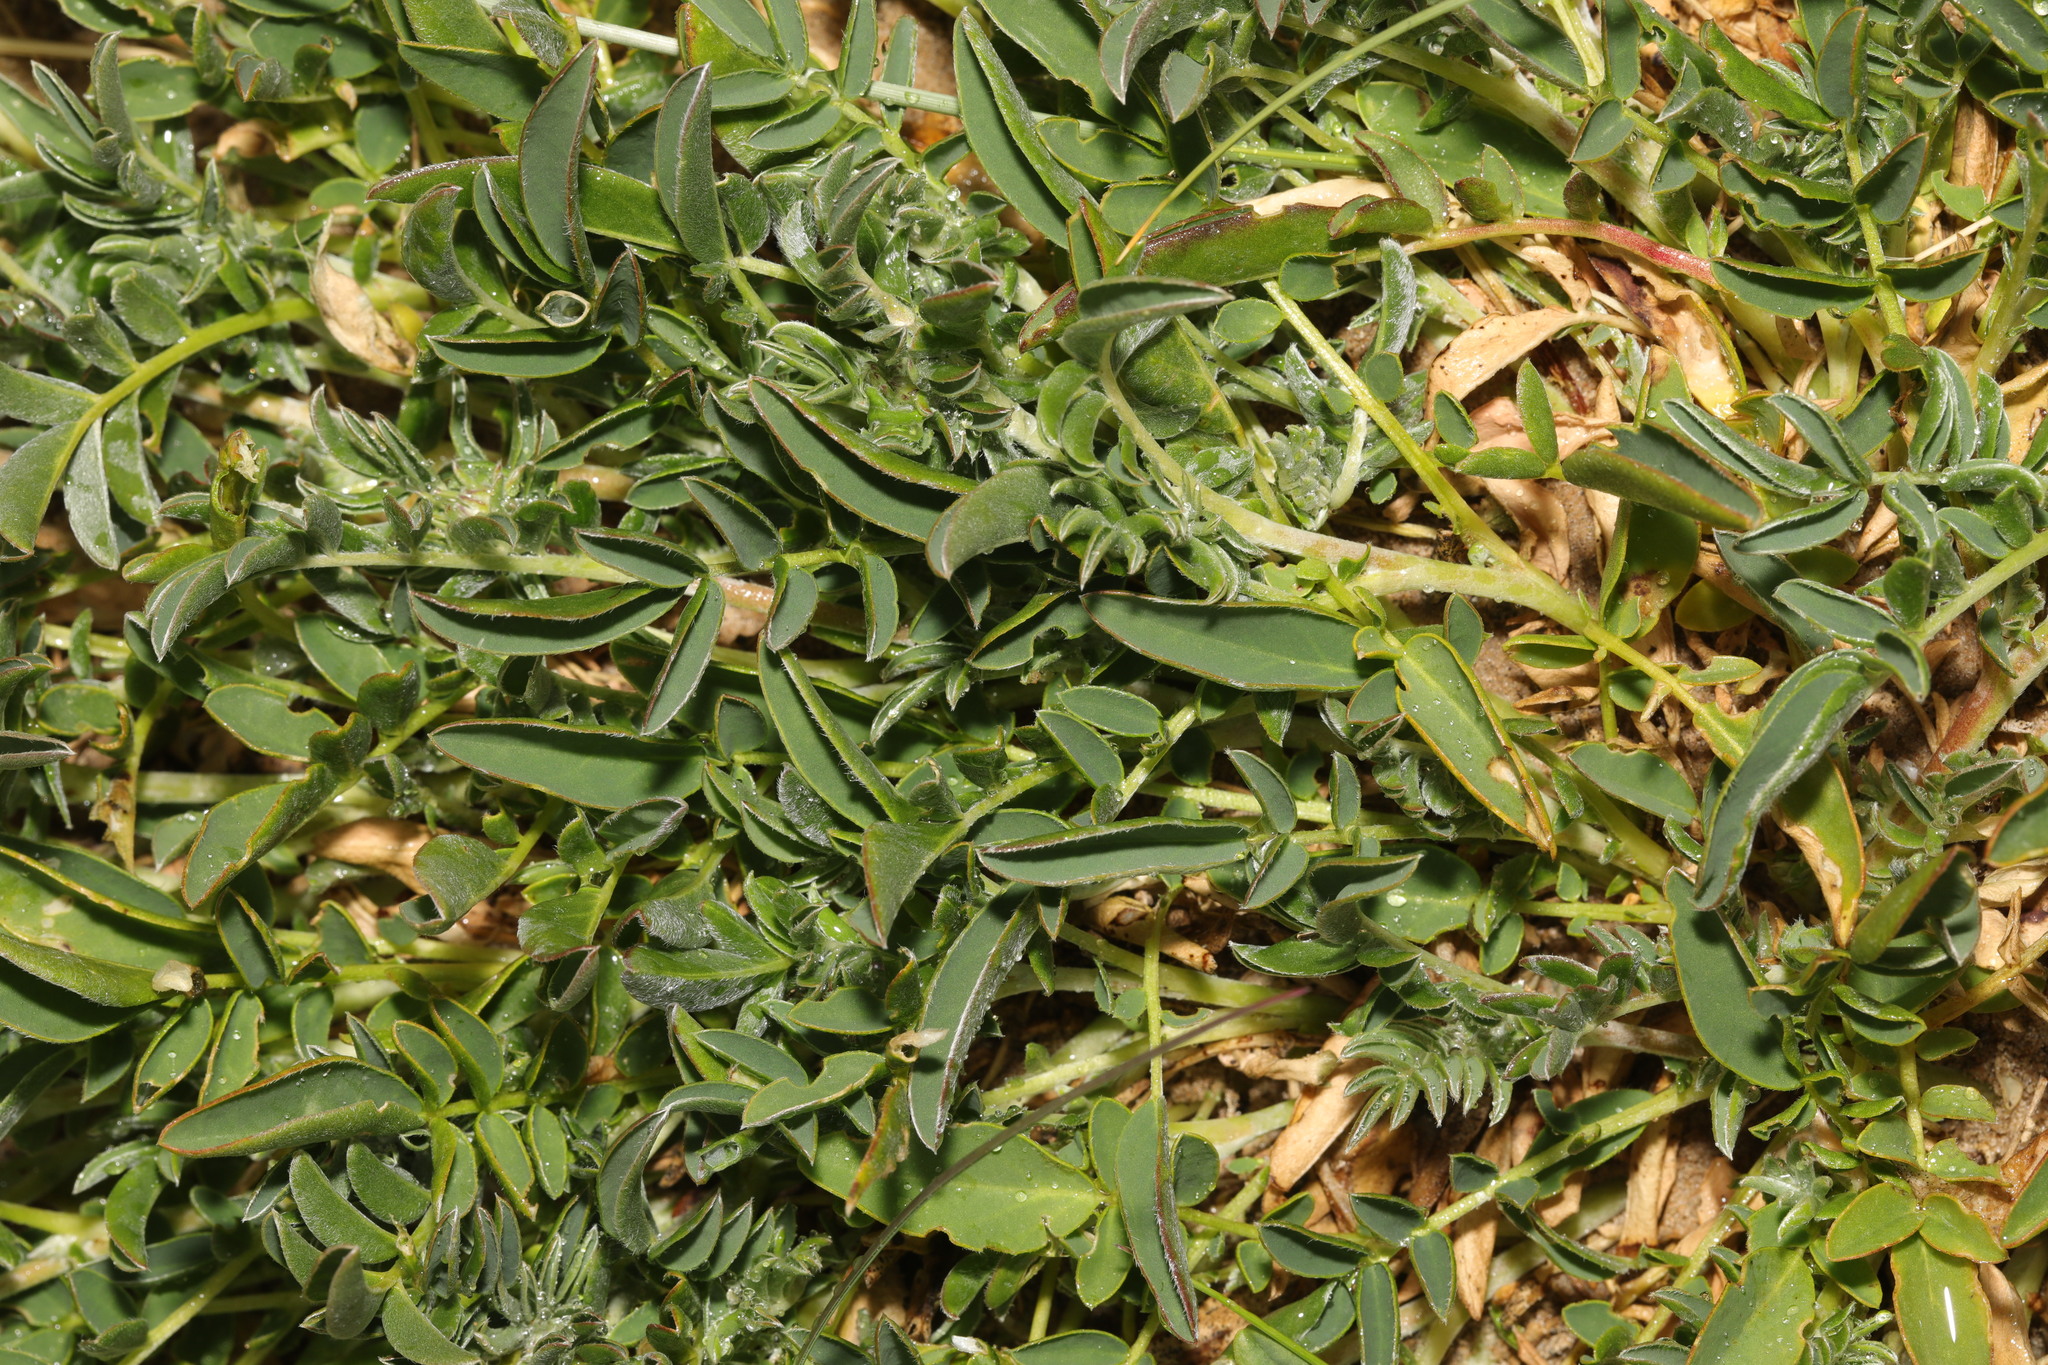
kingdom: Plantae
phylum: Tracheophyta
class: Magnoliopsida
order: Fabales
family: Fabaceae
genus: Anthyllis
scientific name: Anthyllis vulneraria
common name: Kidney vetch
